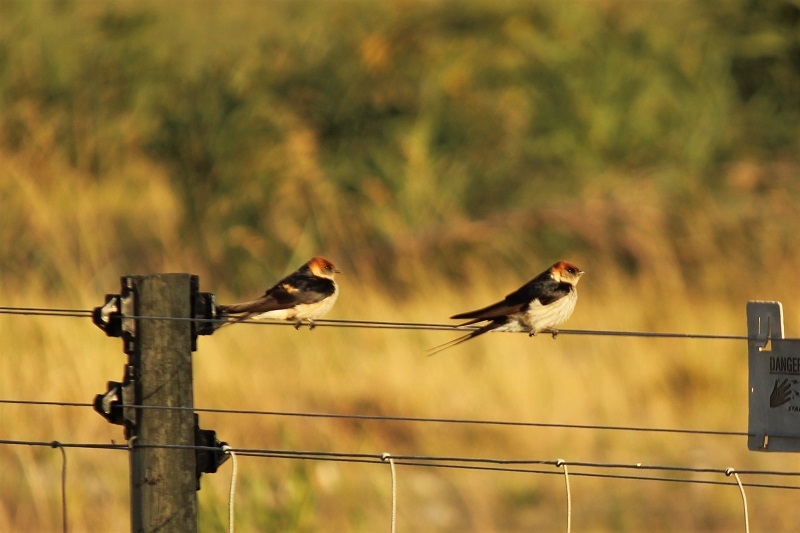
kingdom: Animalia
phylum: Chordata
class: Aves
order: Passeriformes
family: Hirundinidae
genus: Cecropis
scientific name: Cecropis cucullata
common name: Greater striped-swallow
